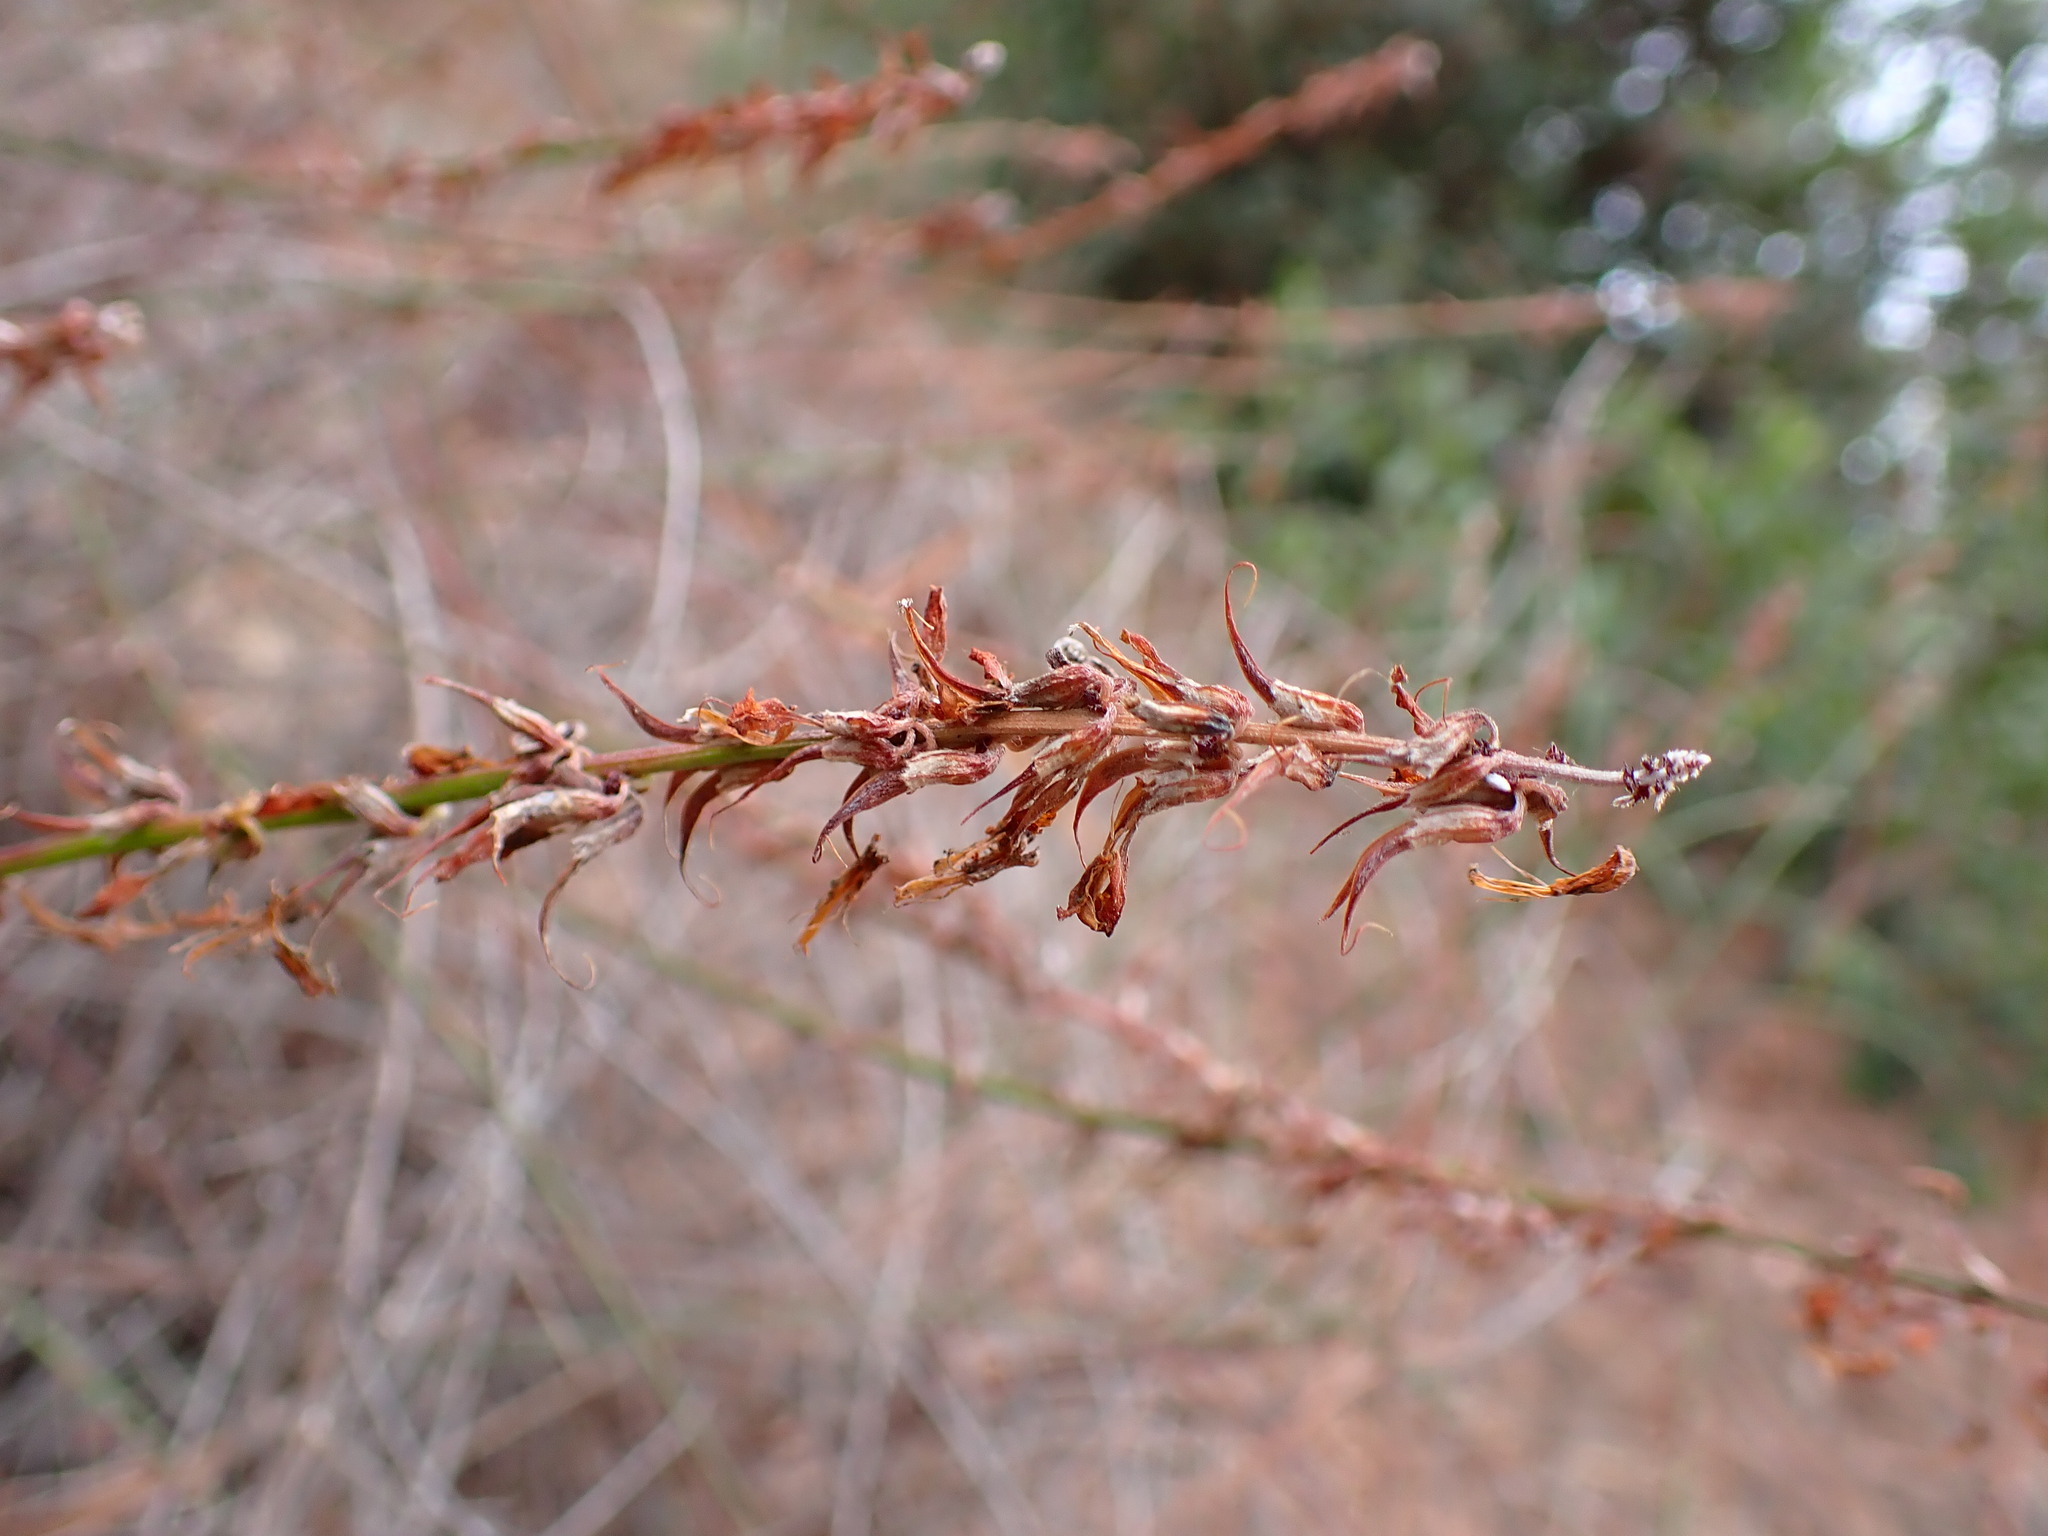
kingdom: Plantae
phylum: Tracheophyta
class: Magnoliopsida
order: Fabales
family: Fabaceae
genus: Acmispon
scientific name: Acmispon glaber
